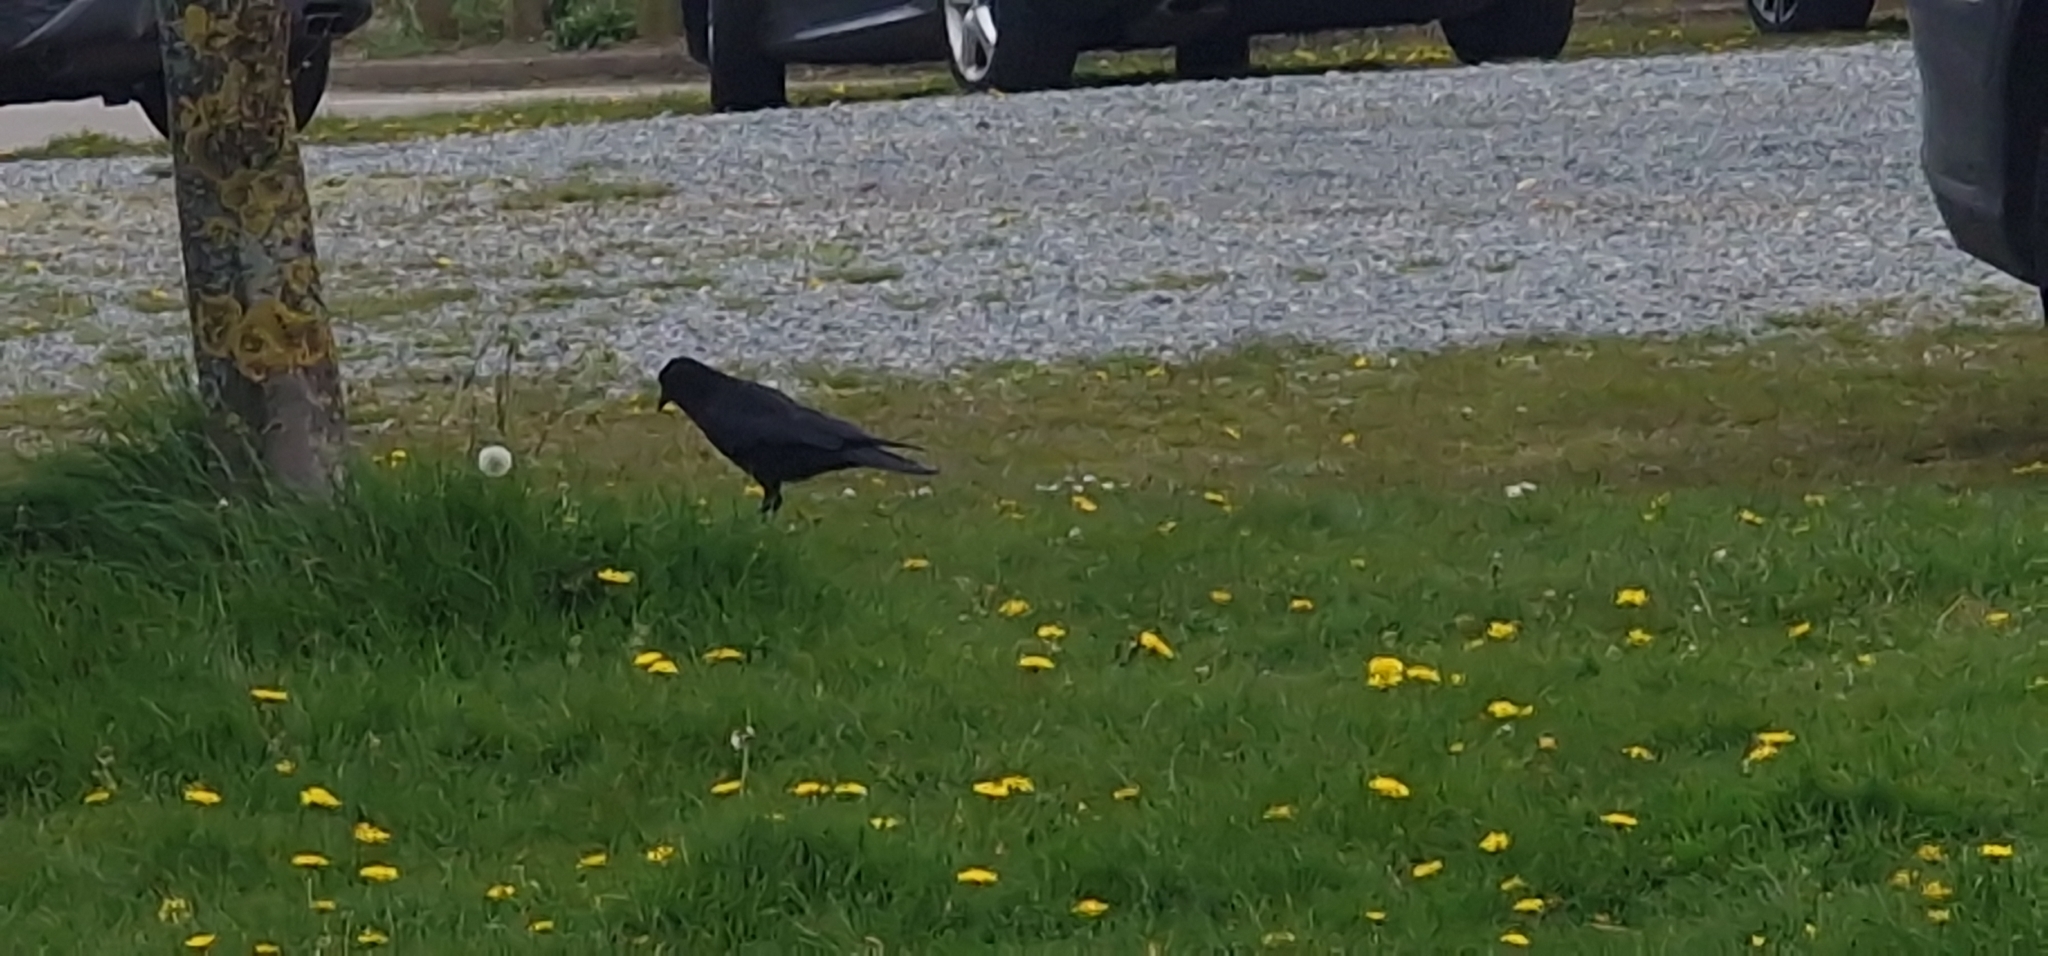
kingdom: Animalia
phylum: Chordata
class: Aves
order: Passeriformes
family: Corvidae
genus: Corvus
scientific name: Corvus corone
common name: Carrion crow
